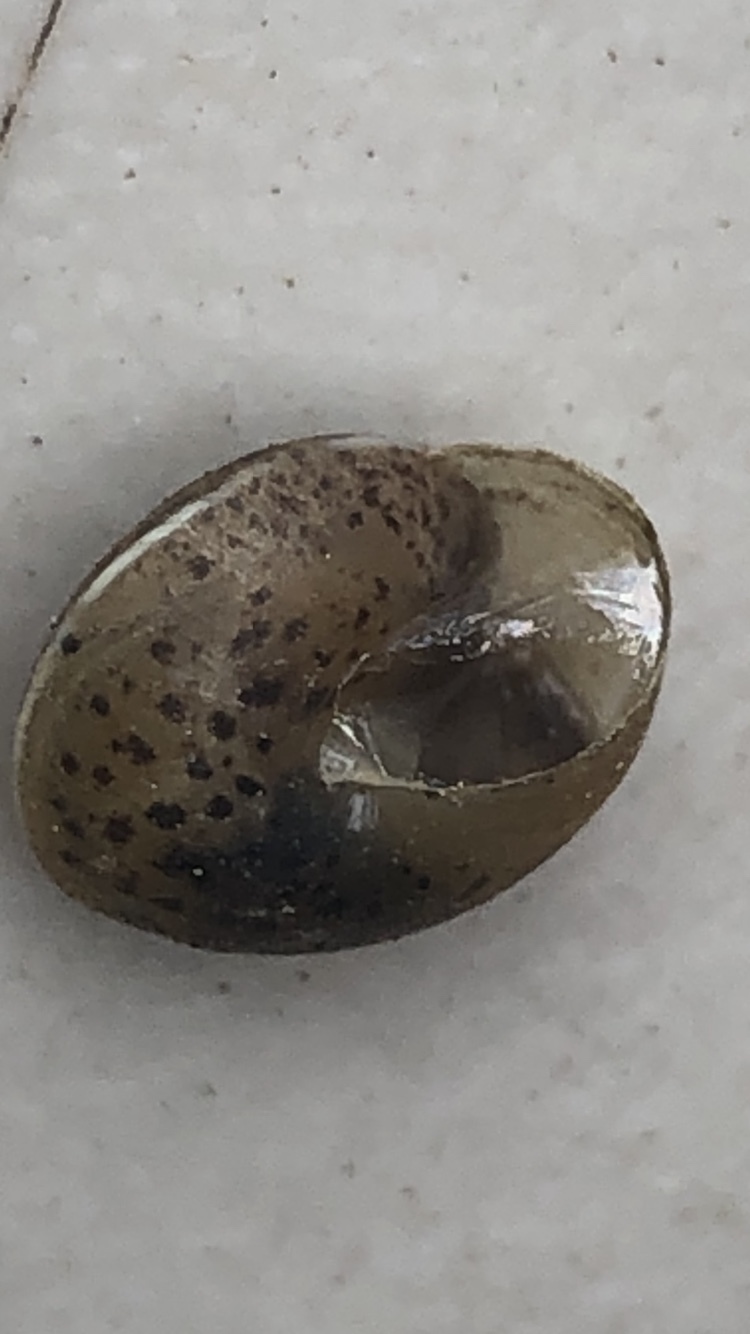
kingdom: Animalia
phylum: Mollusca
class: Gastropoda
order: Stylommatophora
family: Hygromiidae
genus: Hygromia
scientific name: Hygromia cinctella
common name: Girdled snail
